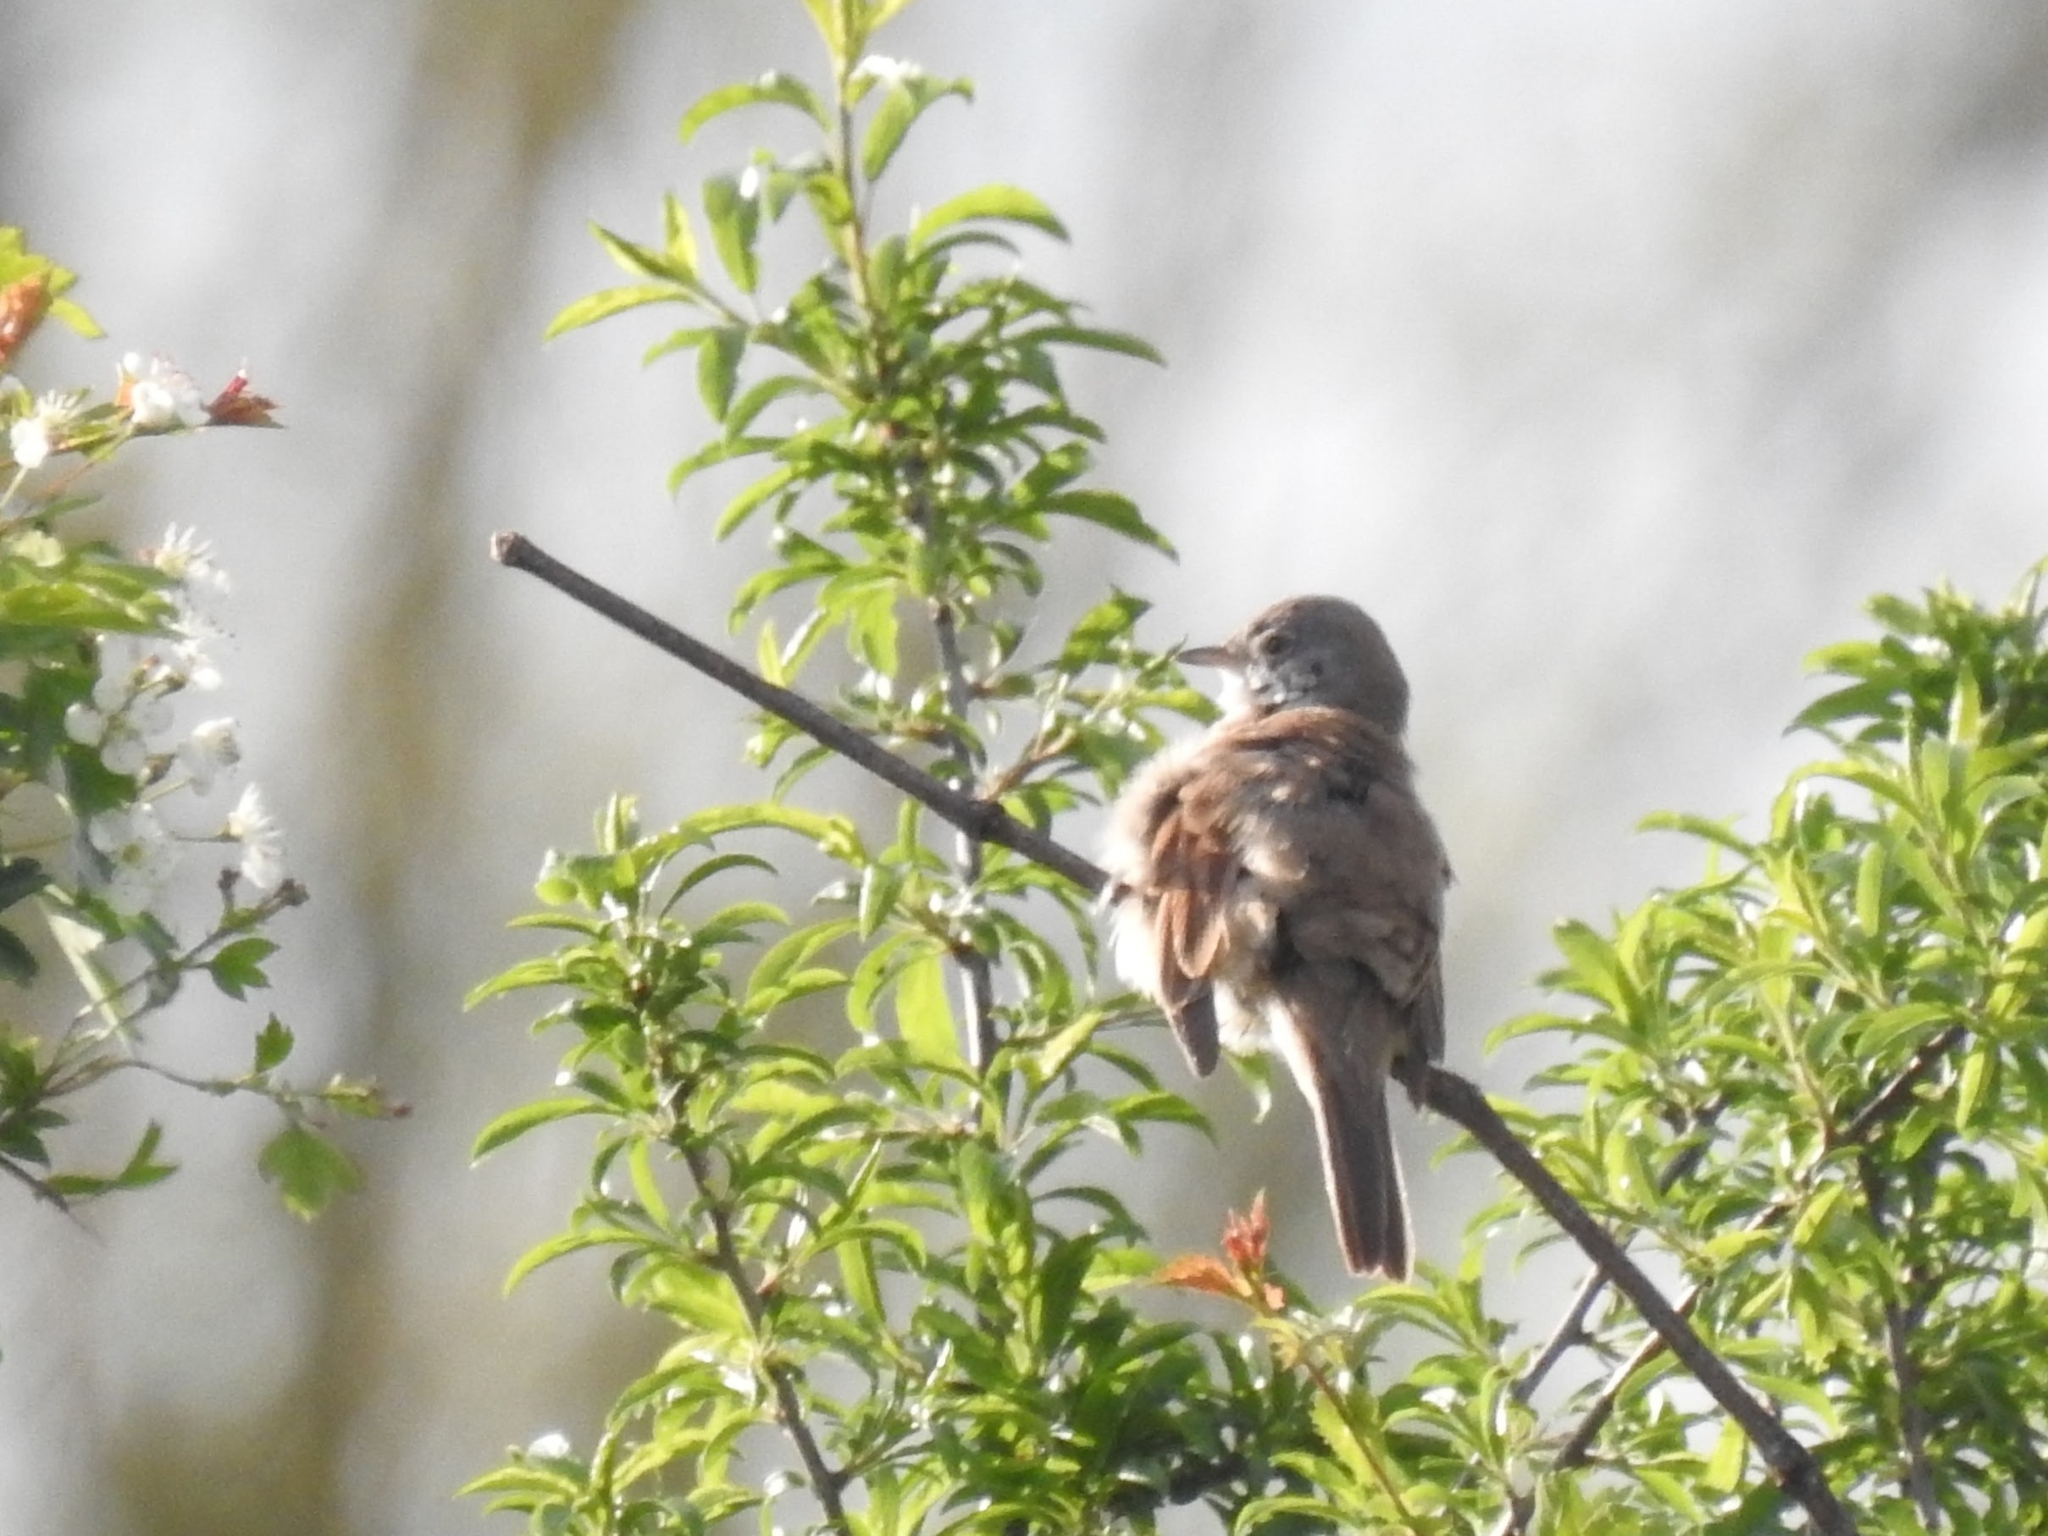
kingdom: Animalia
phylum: Chordata
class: Aves
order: Passeriformes
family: Sylviidae
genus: Sylvia
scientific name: Sylvia communis
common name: Common whitethroat
